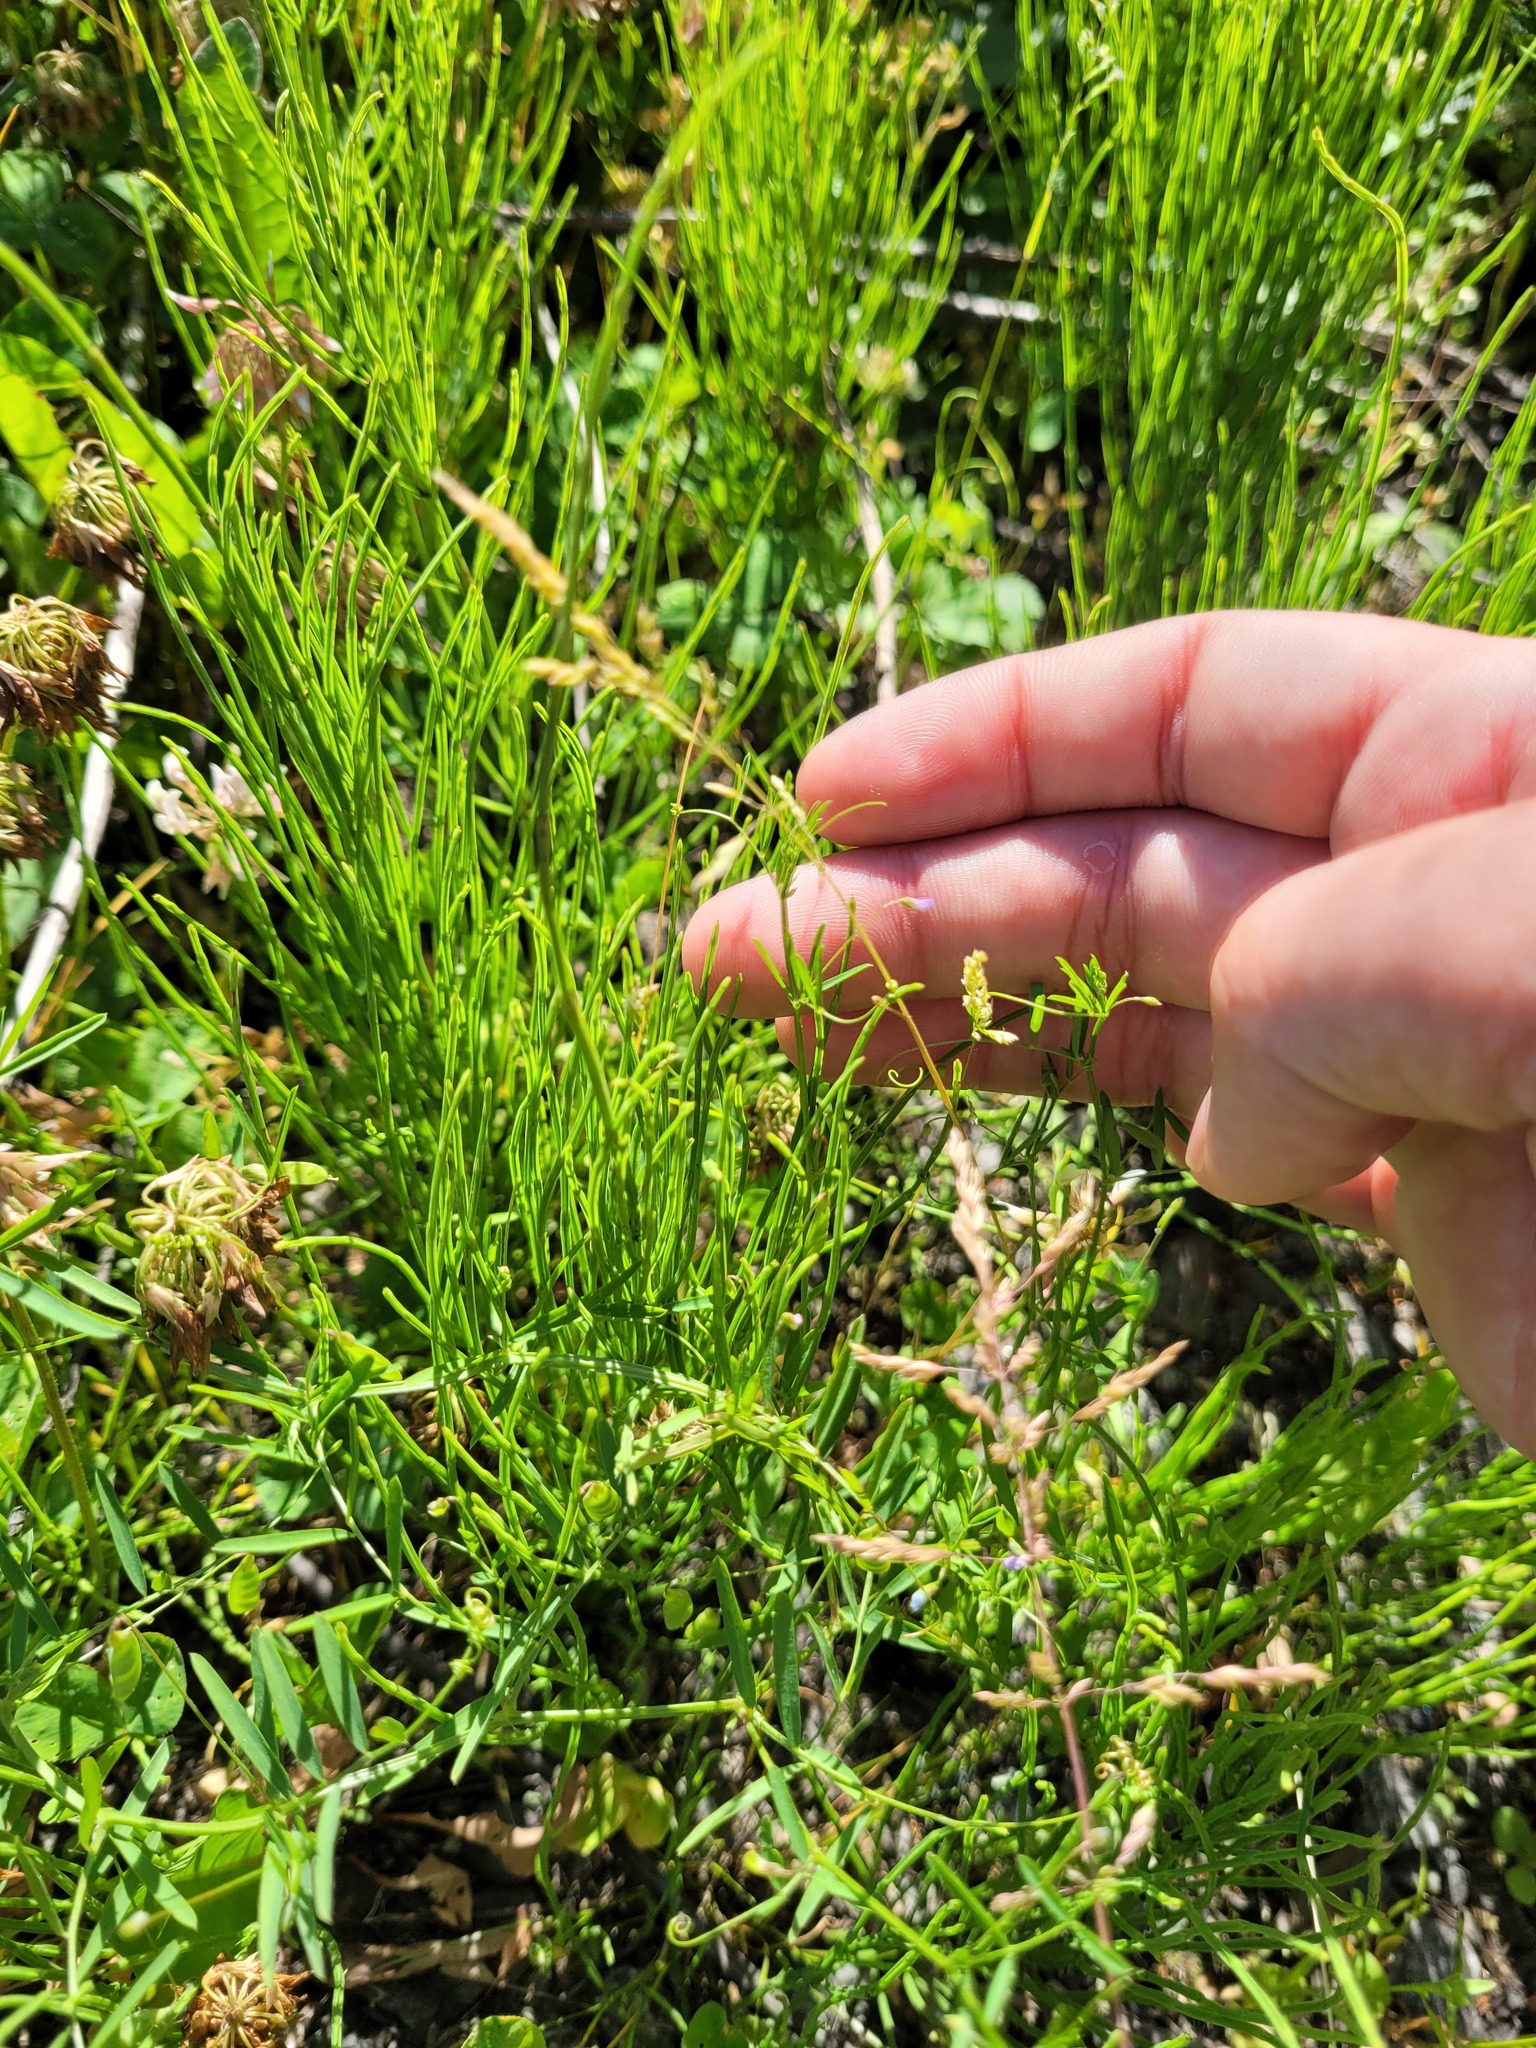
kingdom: Plantae
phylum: Tracheophyta
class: Magnoliopsida
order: Fabales
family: Fabaceae
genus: Vicia
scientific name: Vicia tetrasperma
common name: Smooth tare
